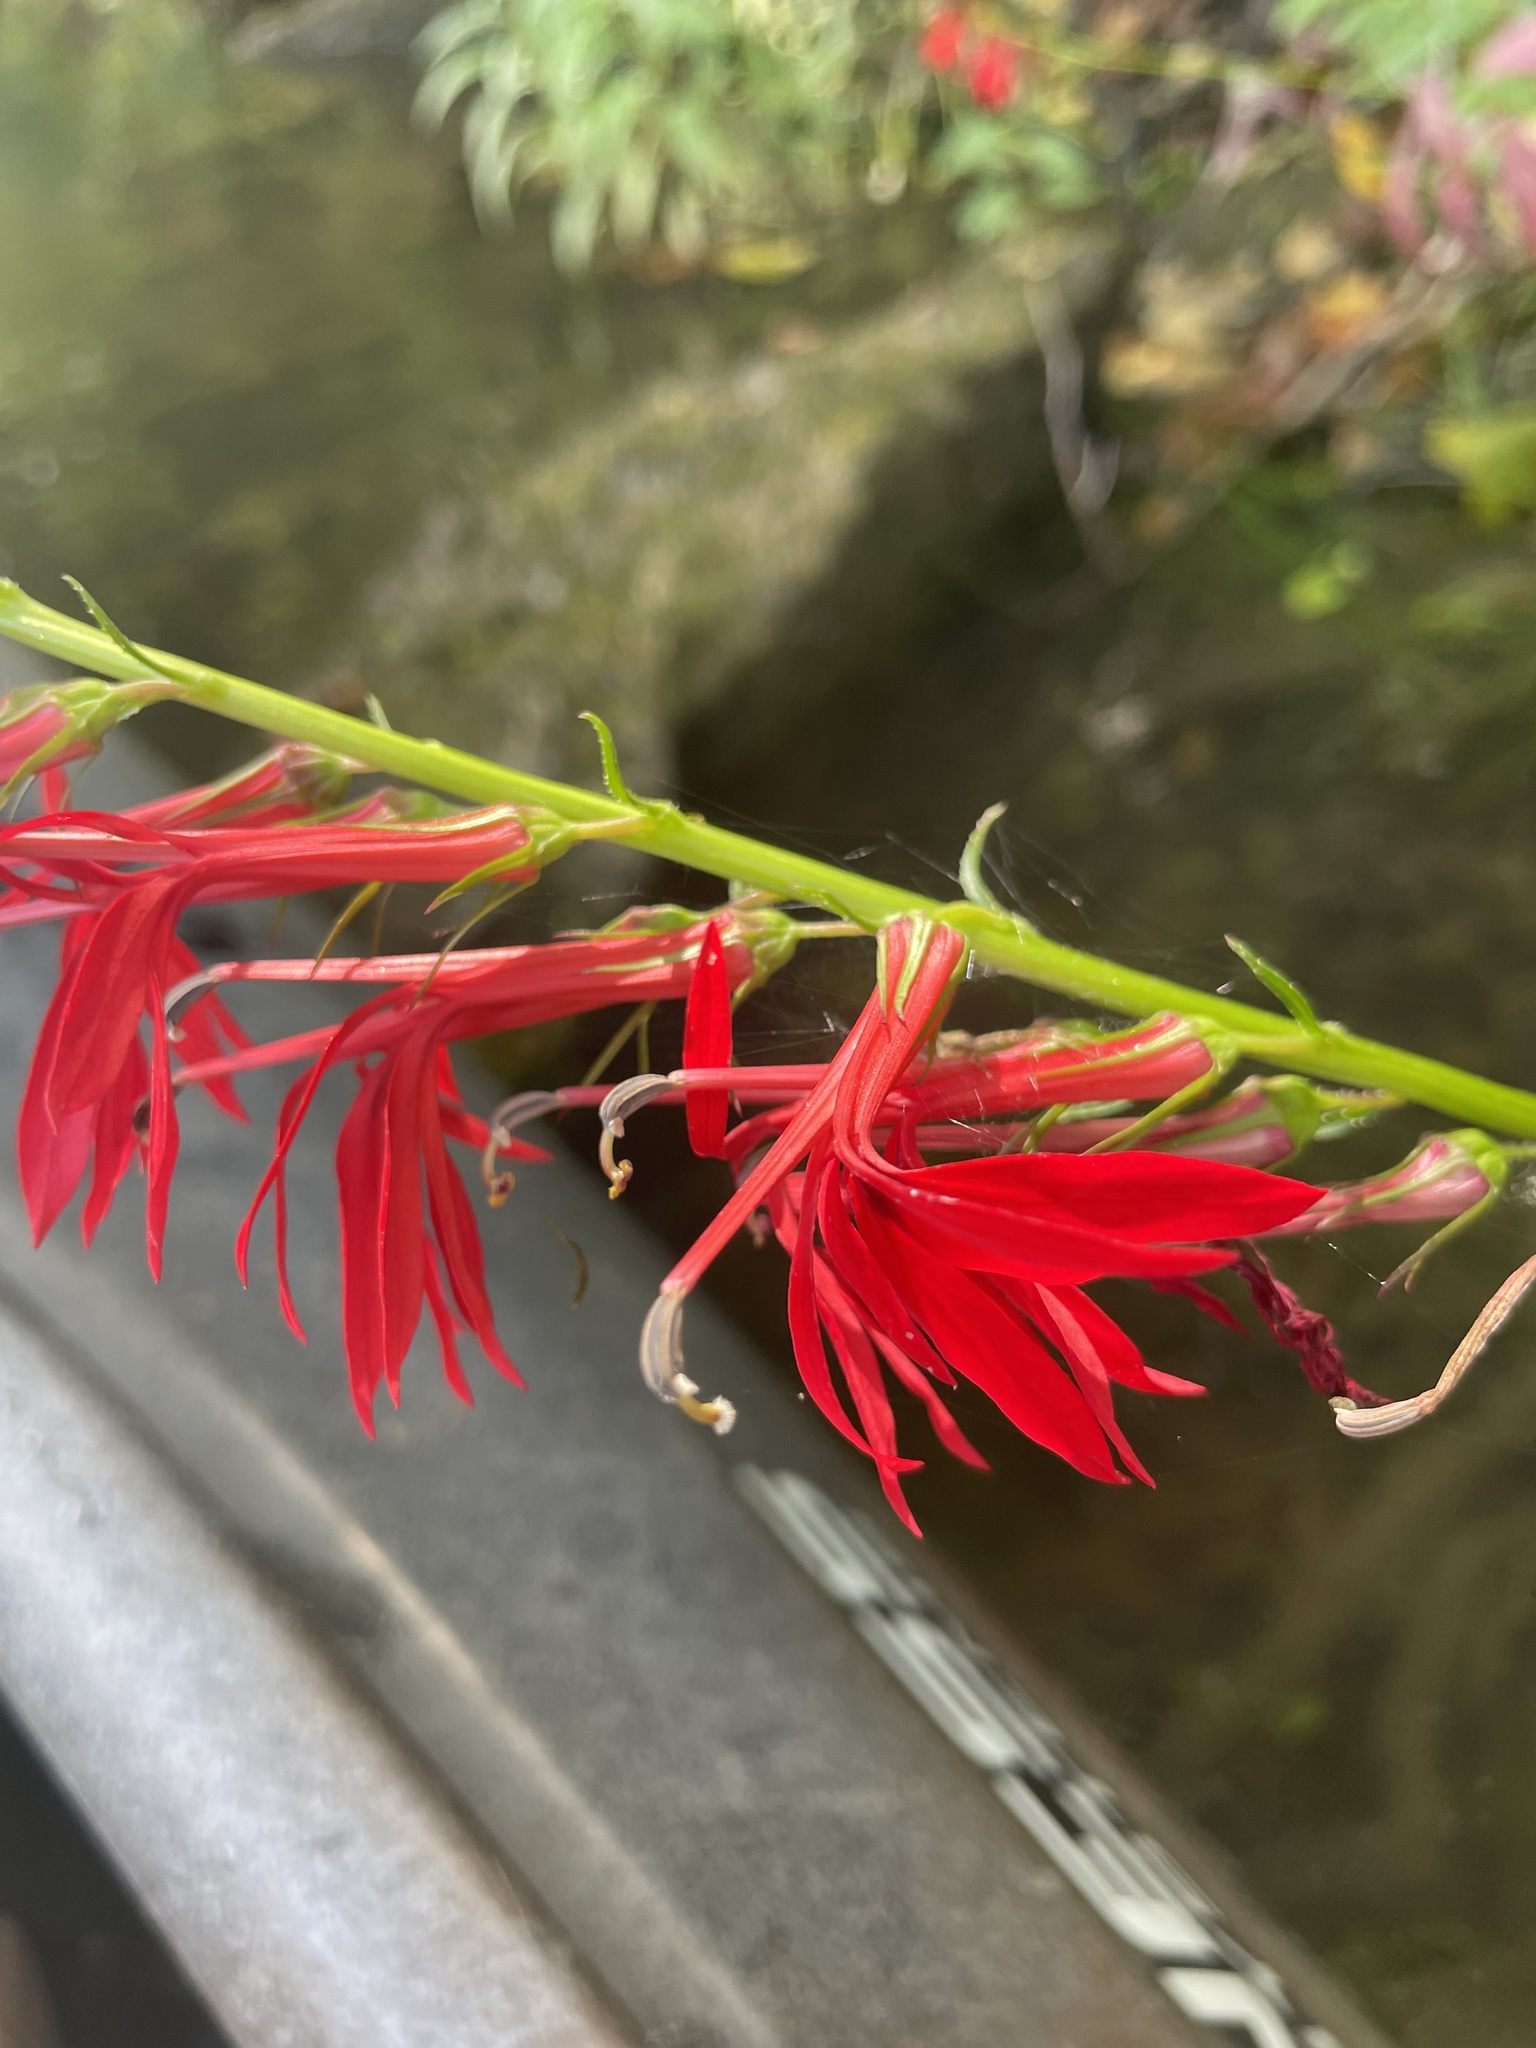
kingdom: Plantae
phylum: Tracheophyta
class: Magnoliopsida
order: Asterales
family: Campanulaceae
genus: Lobelia
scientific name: Lobelia cardinalis
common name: Cardinal flower
